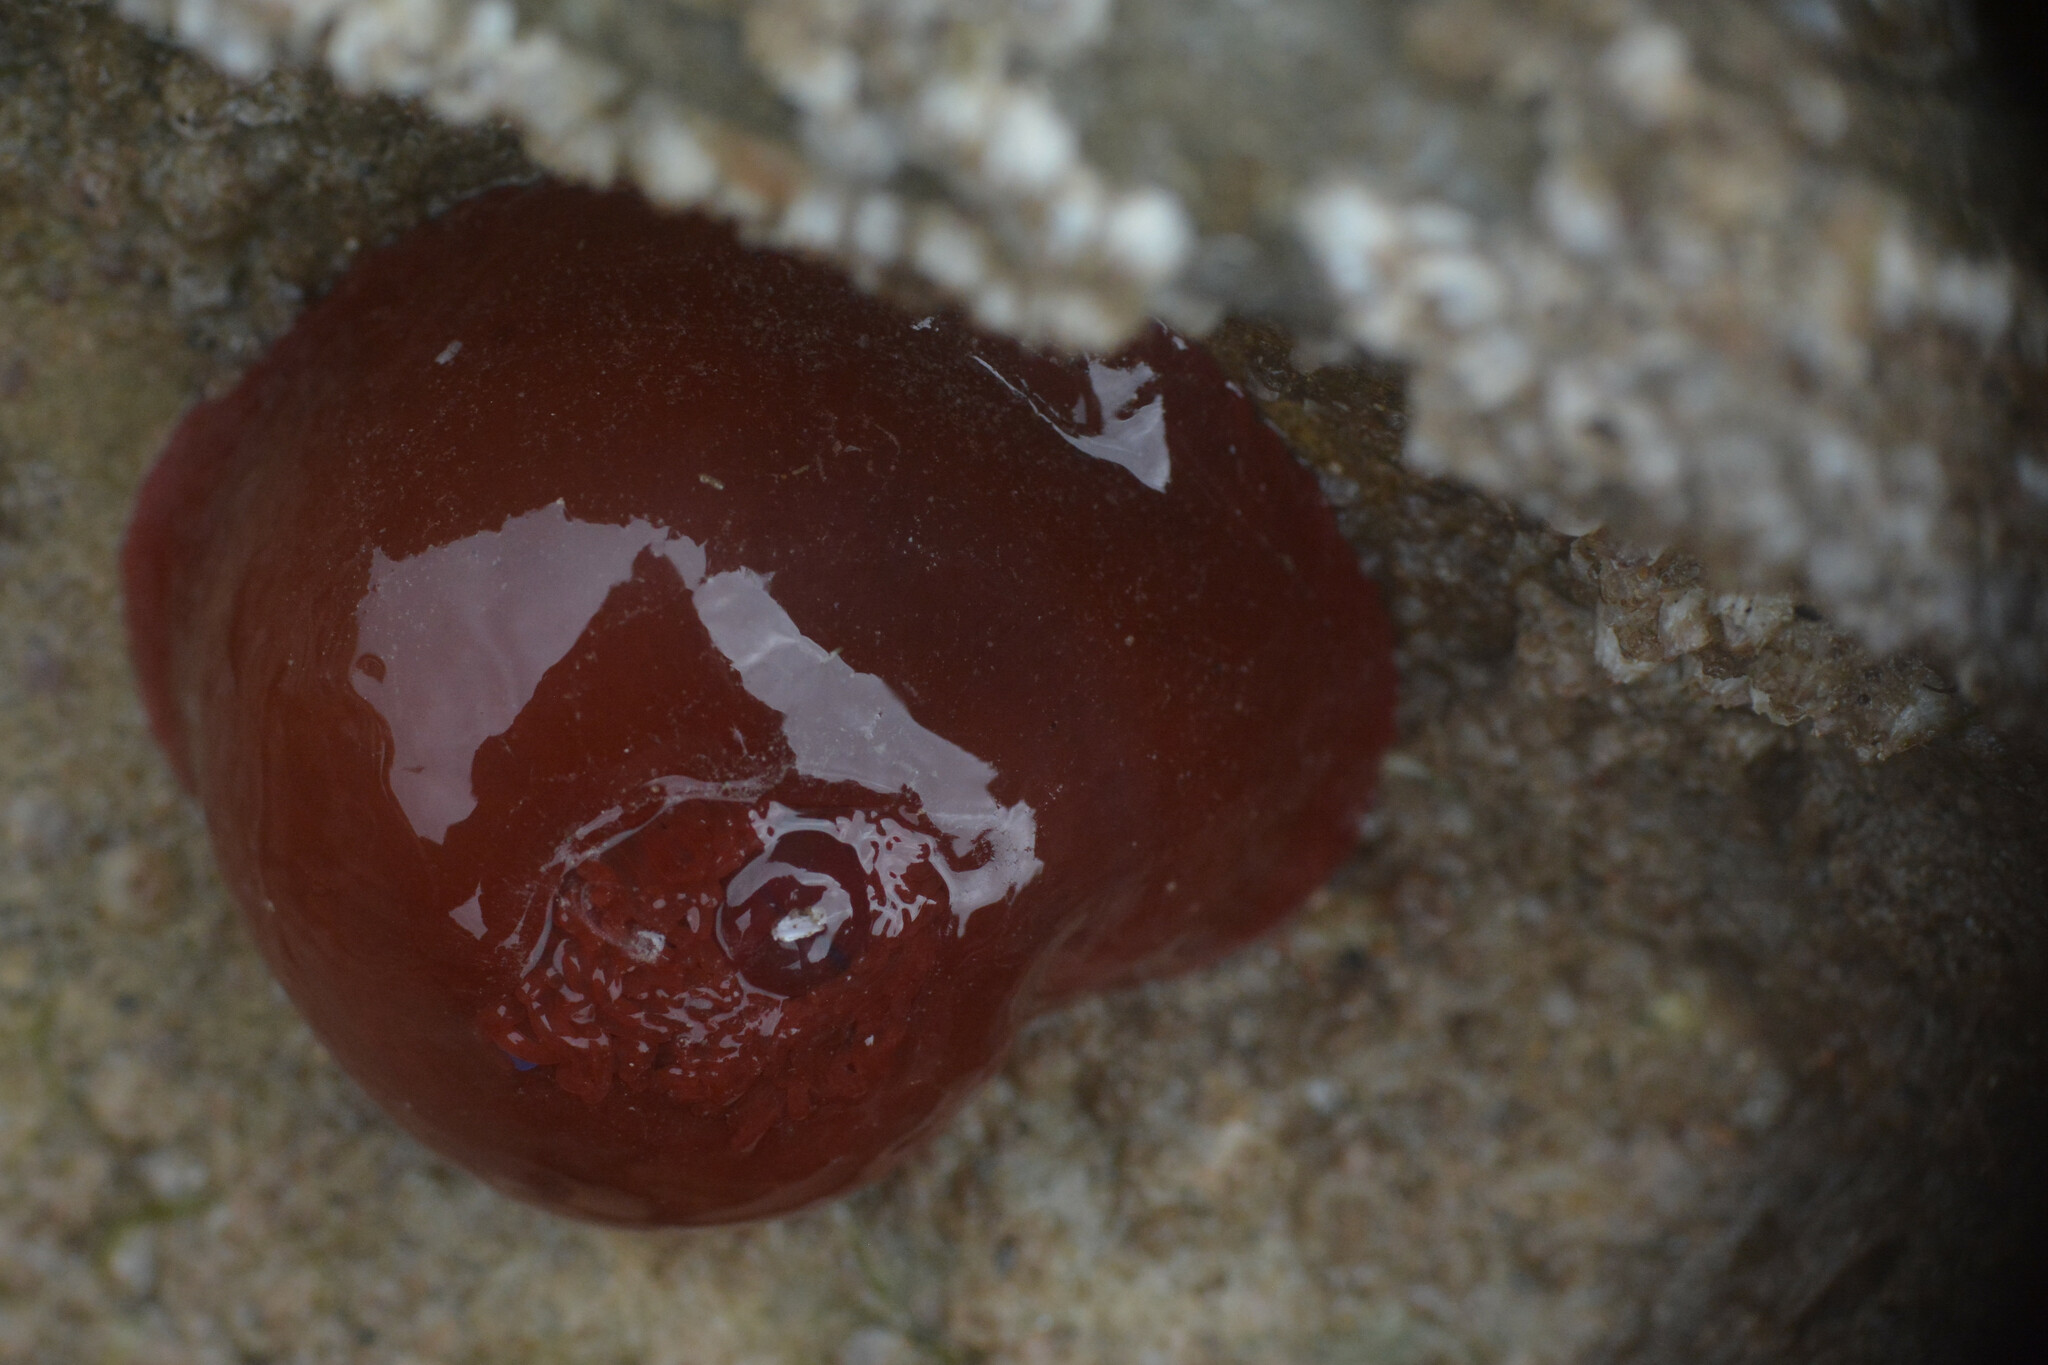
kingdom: Animalia
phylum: Cnidaria
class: Anthozoa
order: Actiniaria
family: Actiniidae
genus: Actinia
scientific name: Actinia equina
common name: Beadlet anemone
